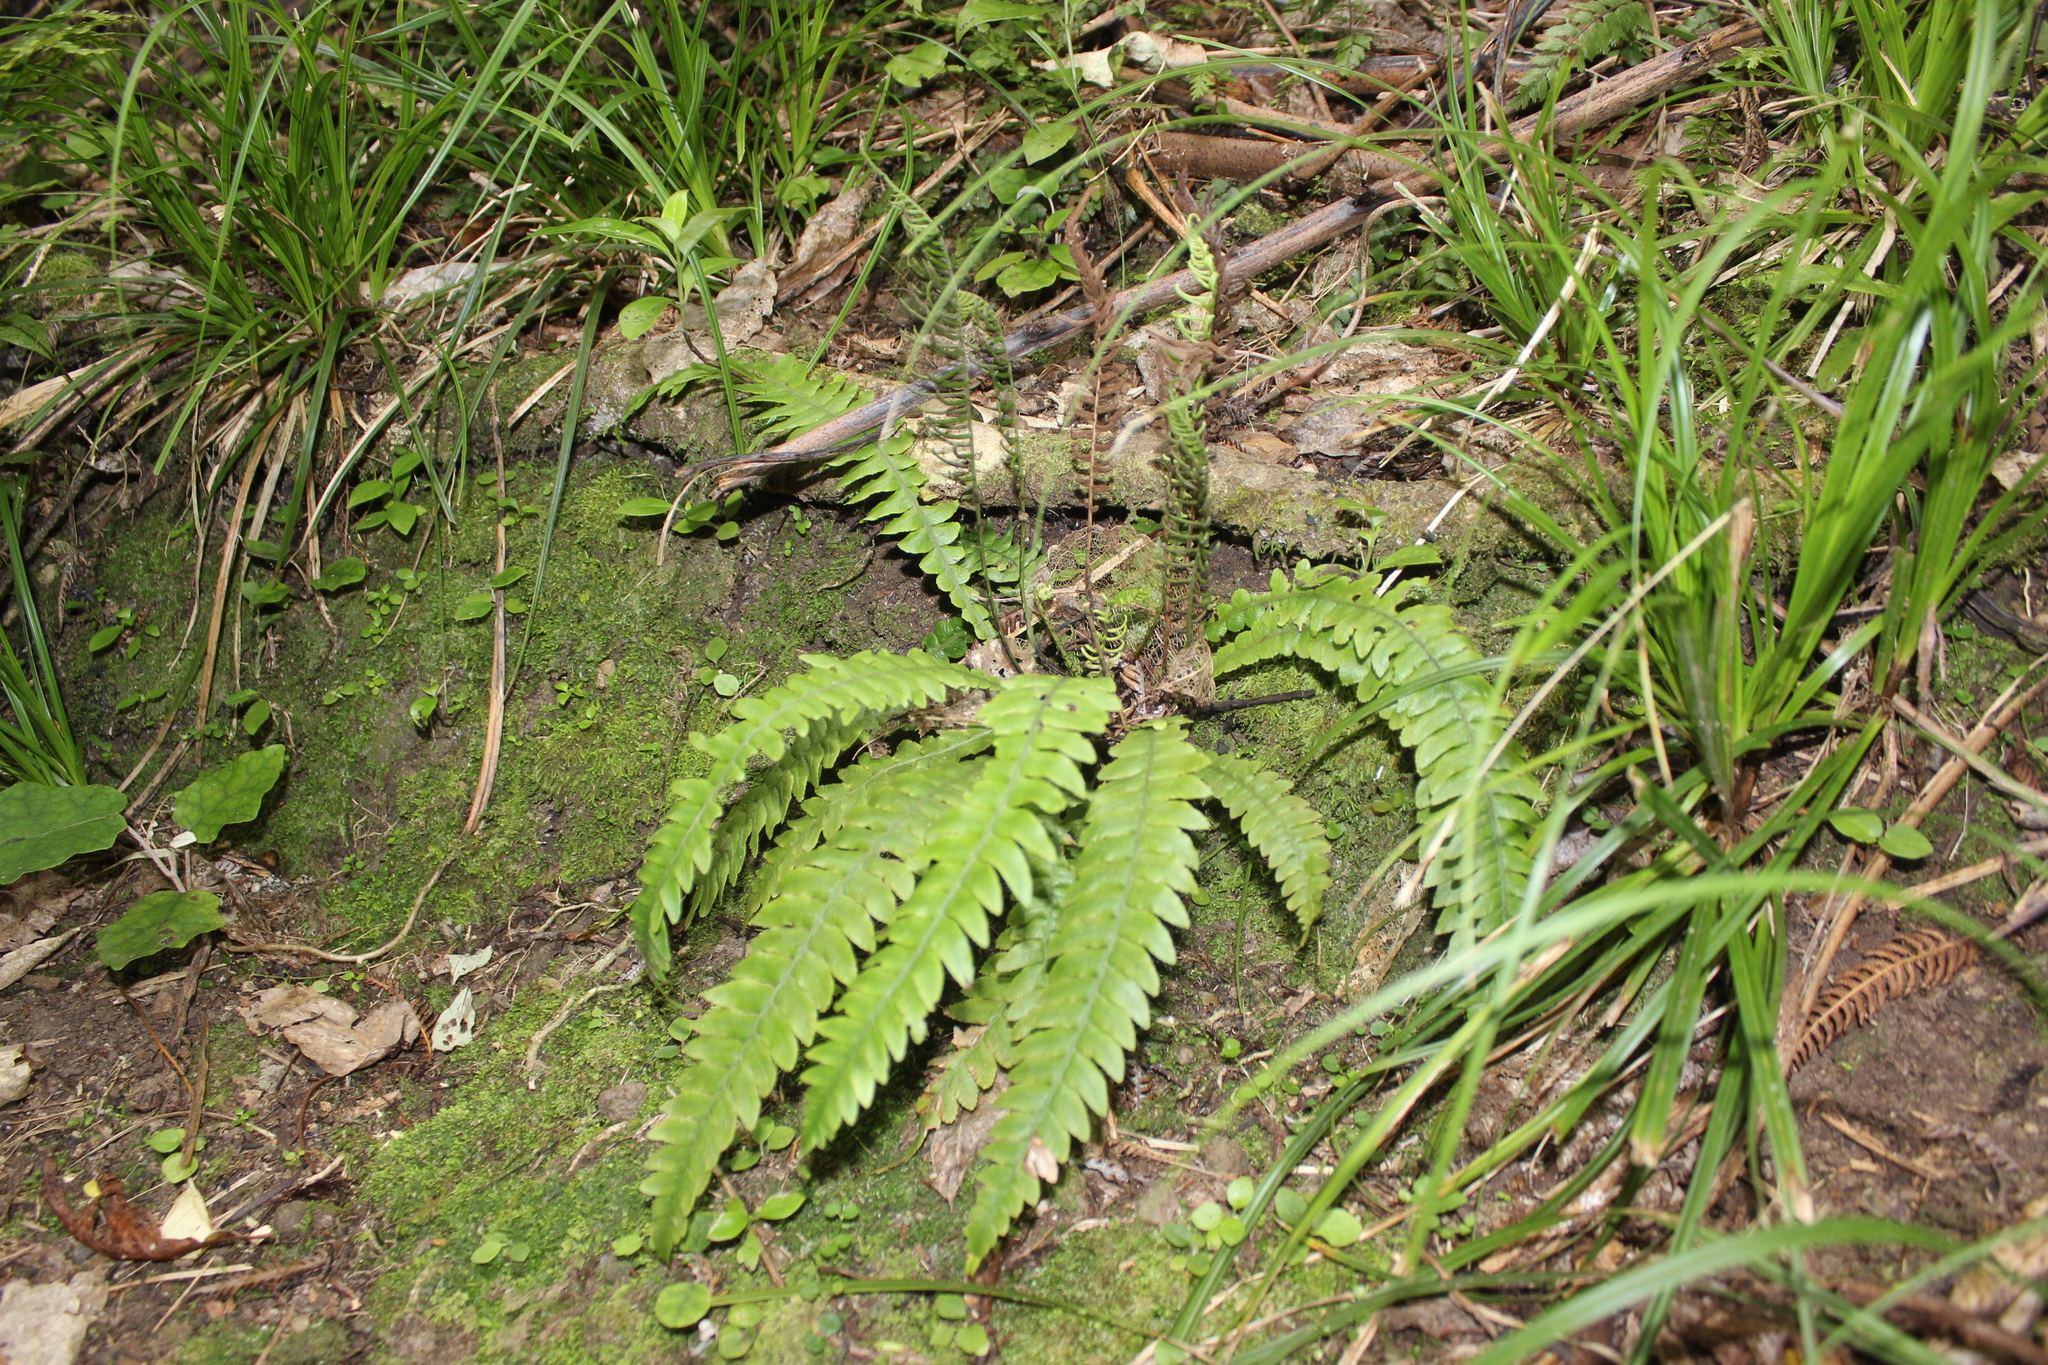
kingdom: Plantae
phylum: Tracheophyta
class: Polypodiopsida
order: Polypodiales
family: Blechnaceae
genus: Austroblechnum
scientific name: Austroblechnum lanceolatum
